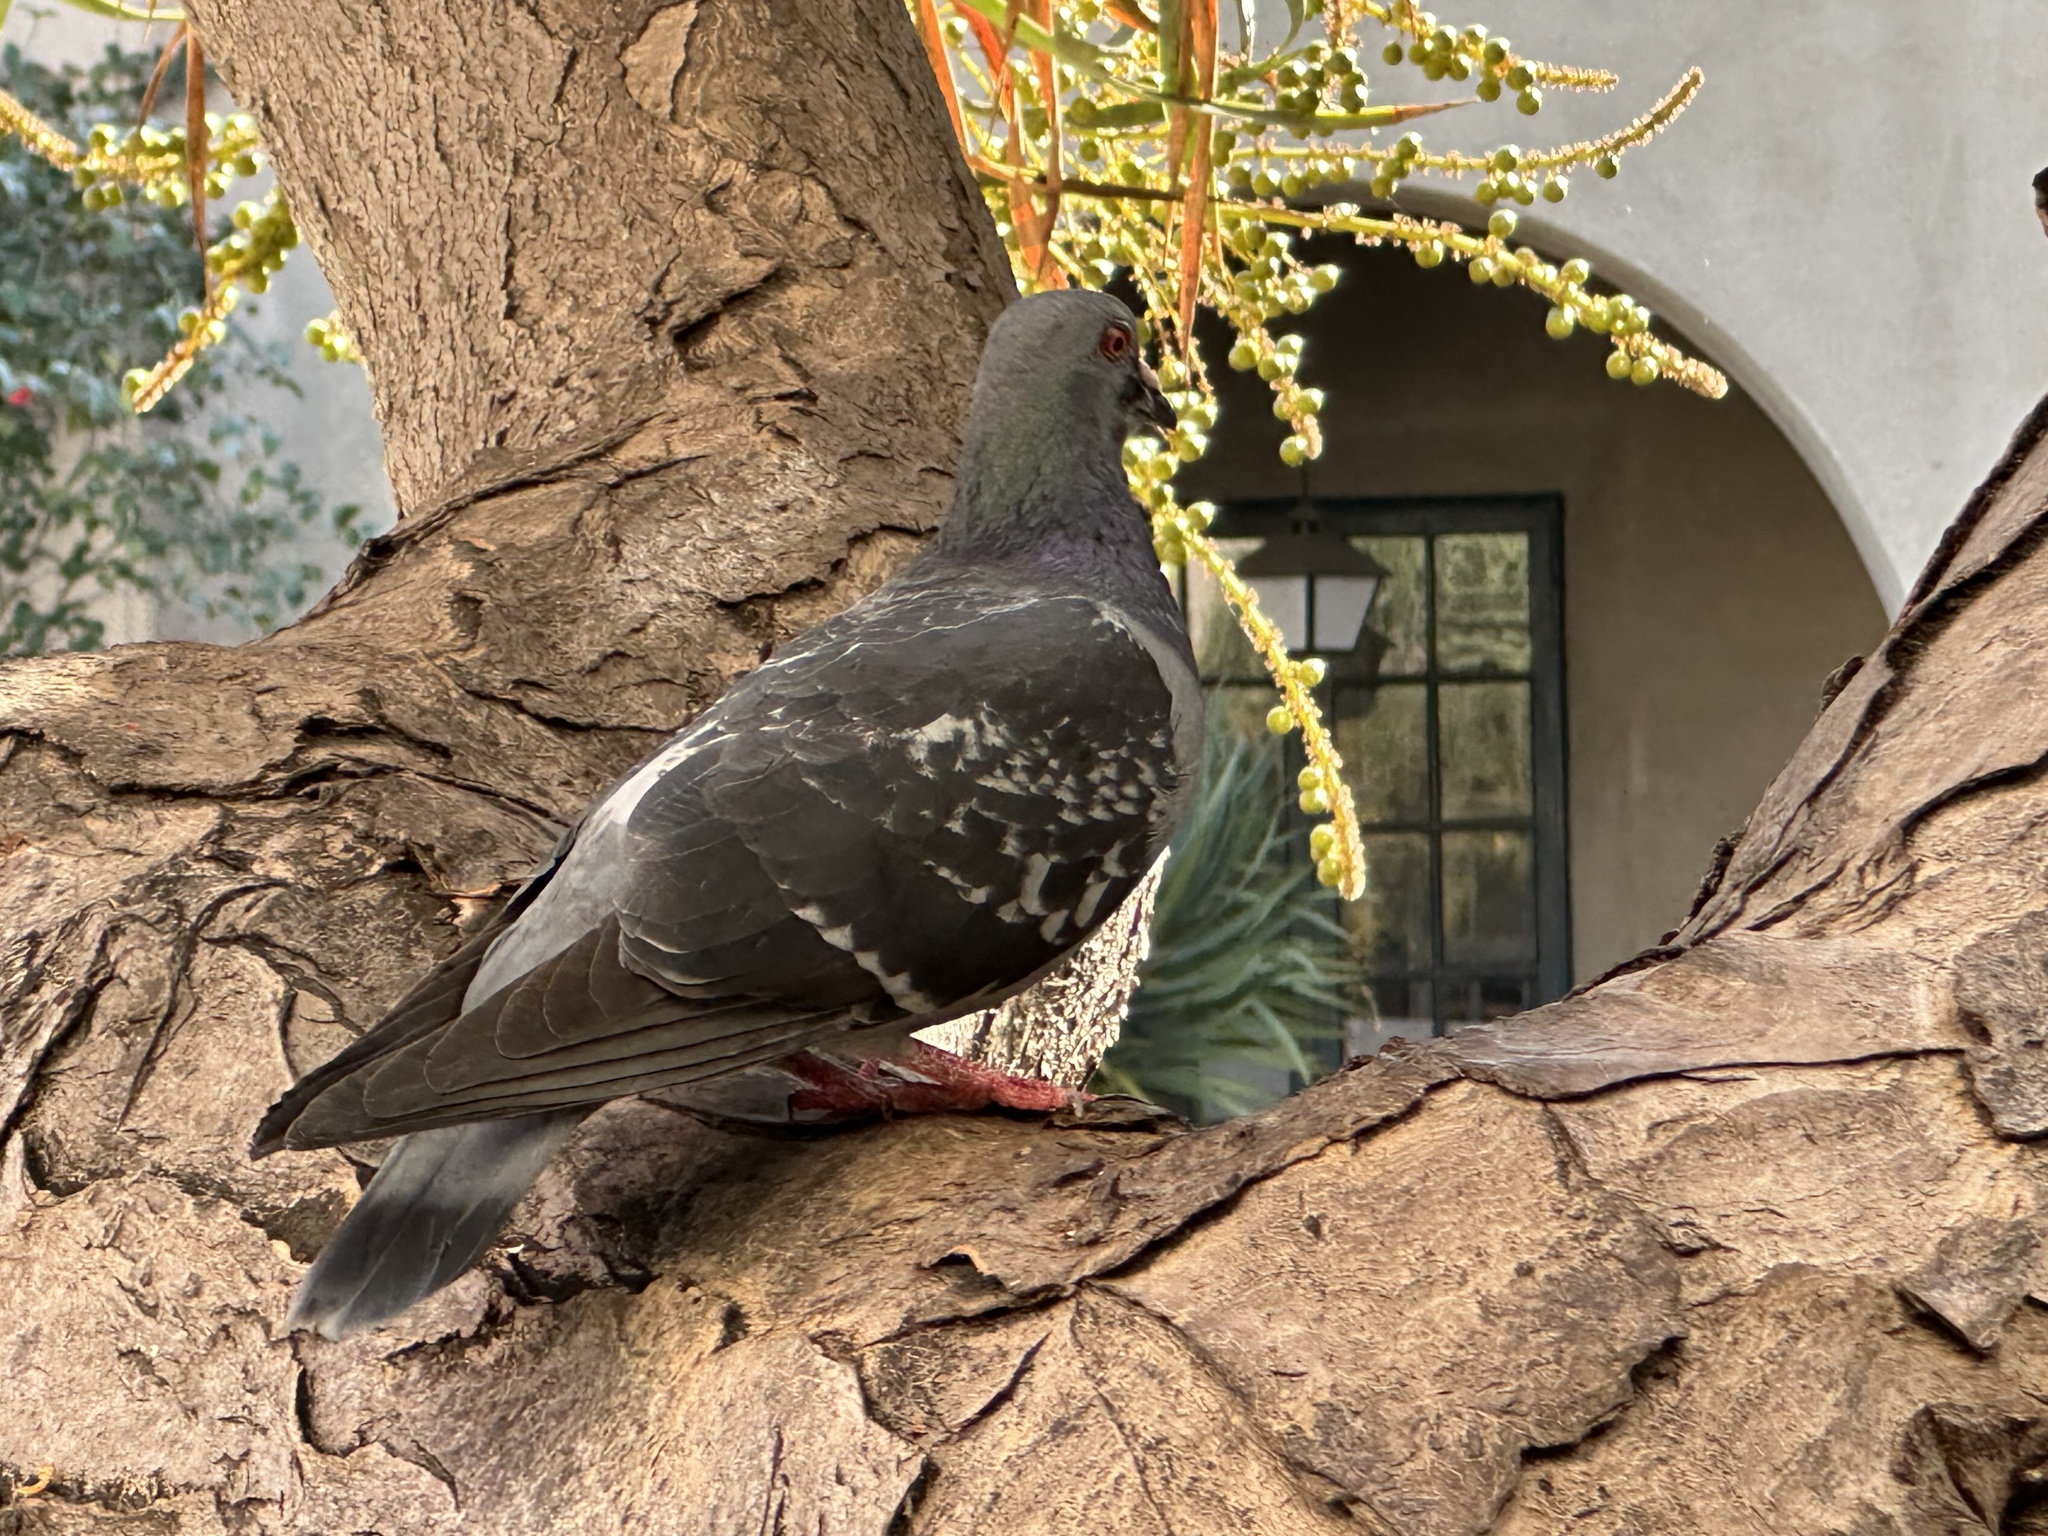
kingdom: Animalia
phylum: Chordata
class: Aves
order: Columbiformes
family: Columbidae
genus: Columba
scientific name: Columba livia
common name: Rock pigeon
